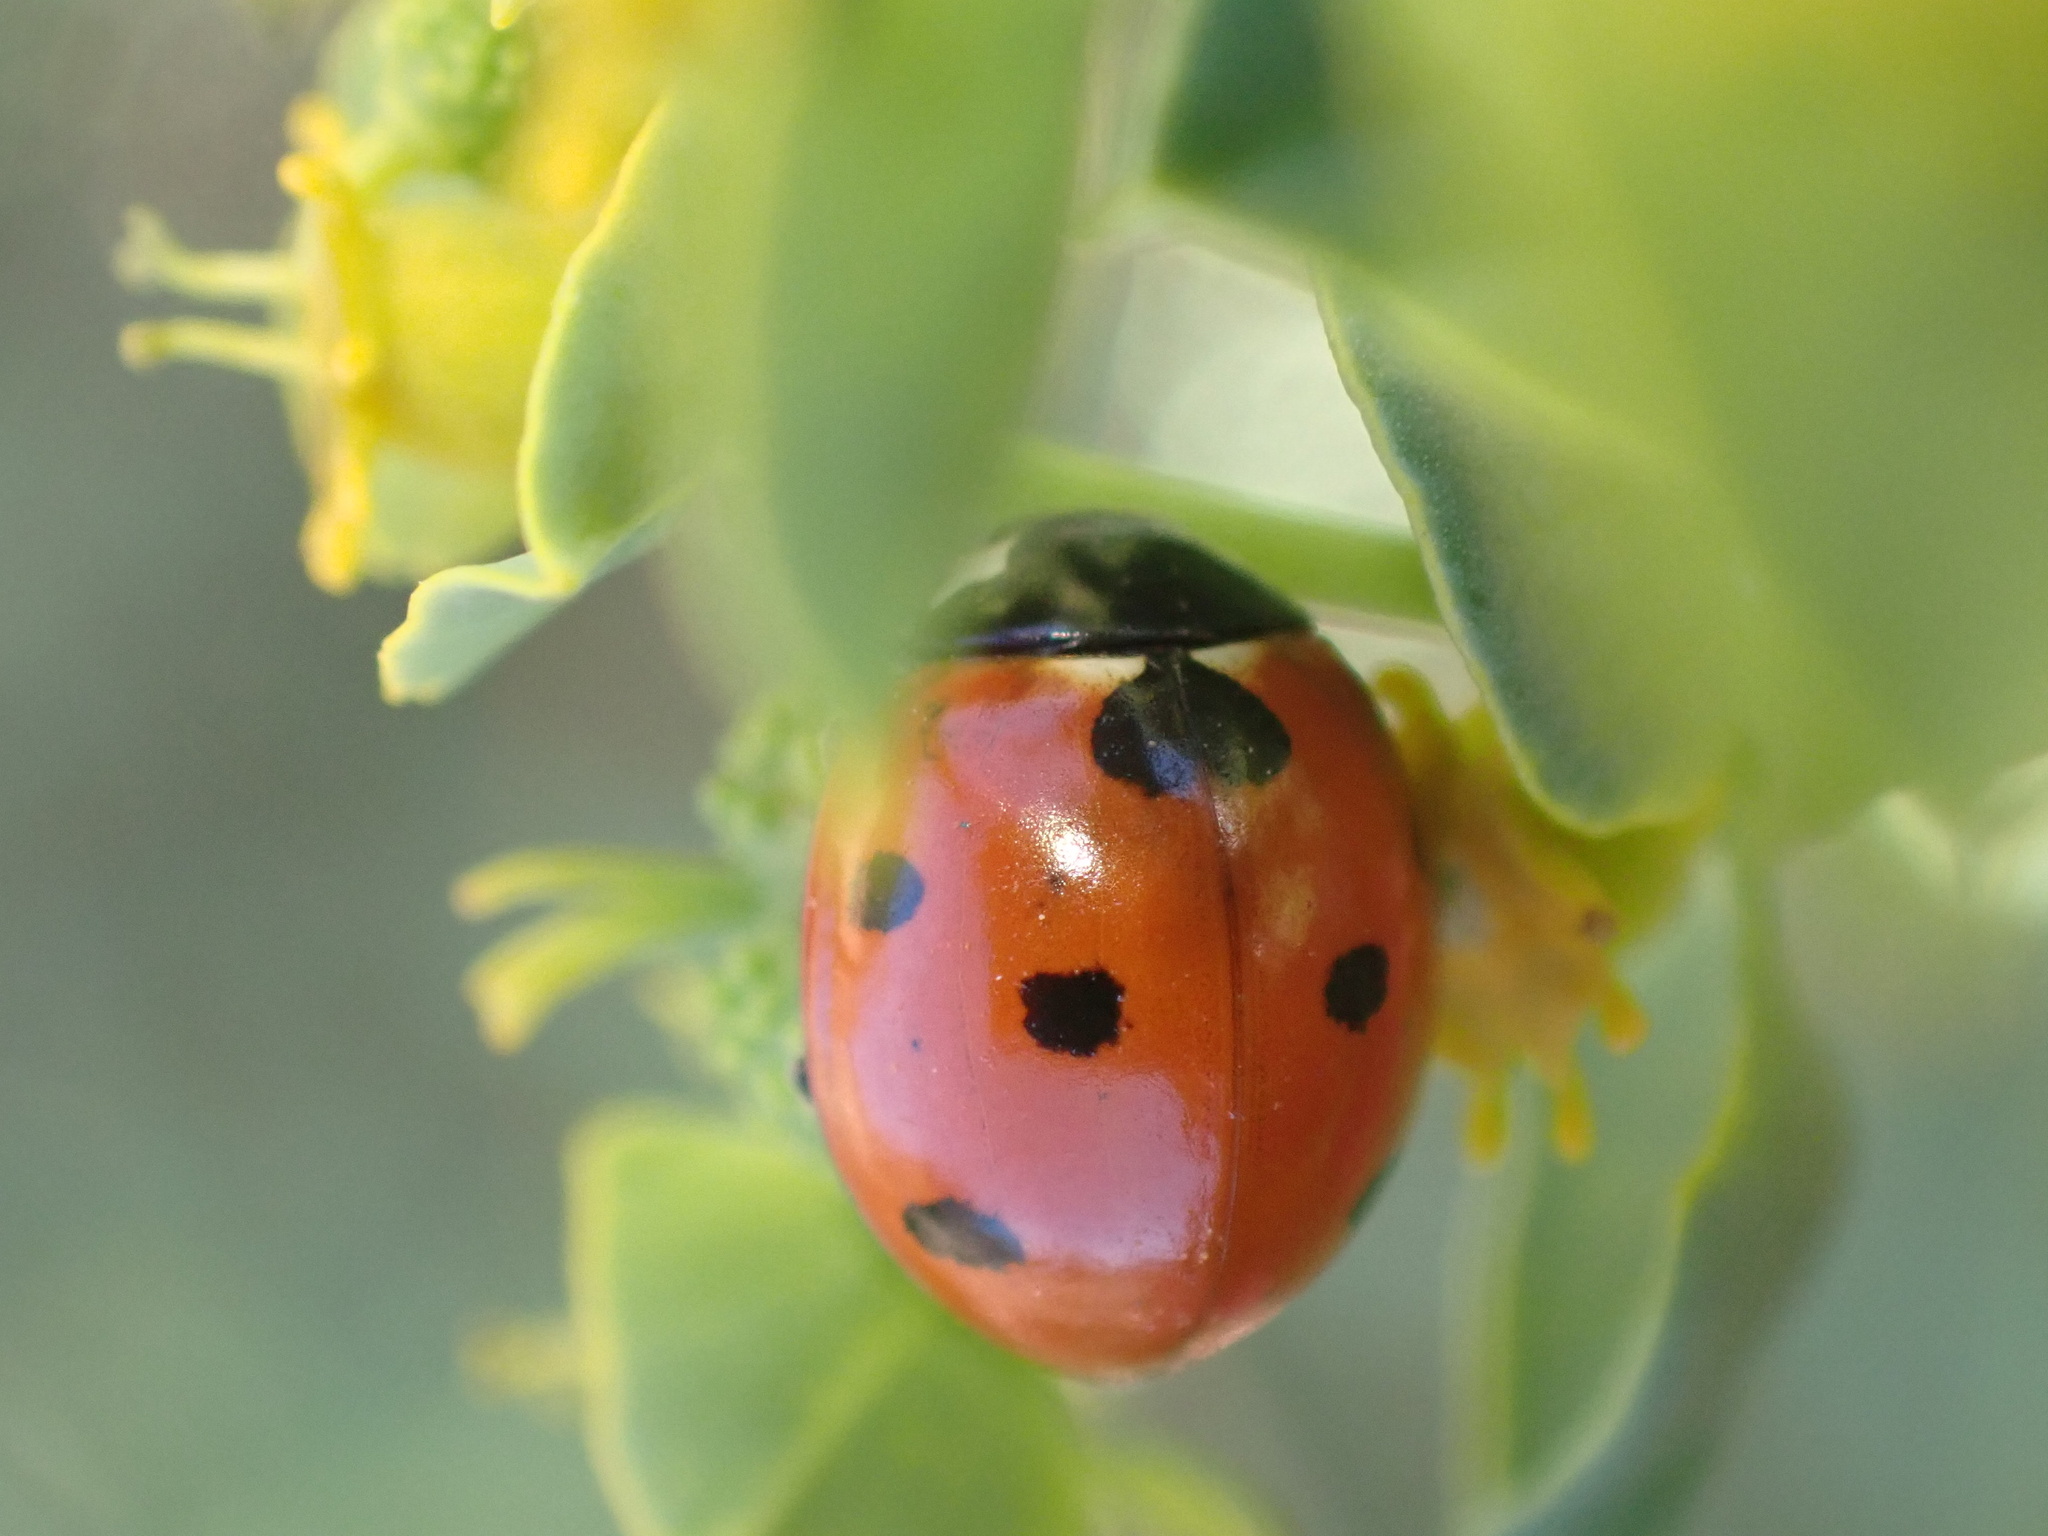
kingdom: Animalia
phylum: Arthropoda
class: Insecta
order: Coleoptera
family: Coccinellidae
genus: Coccinella
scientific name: Coccinella algerica
